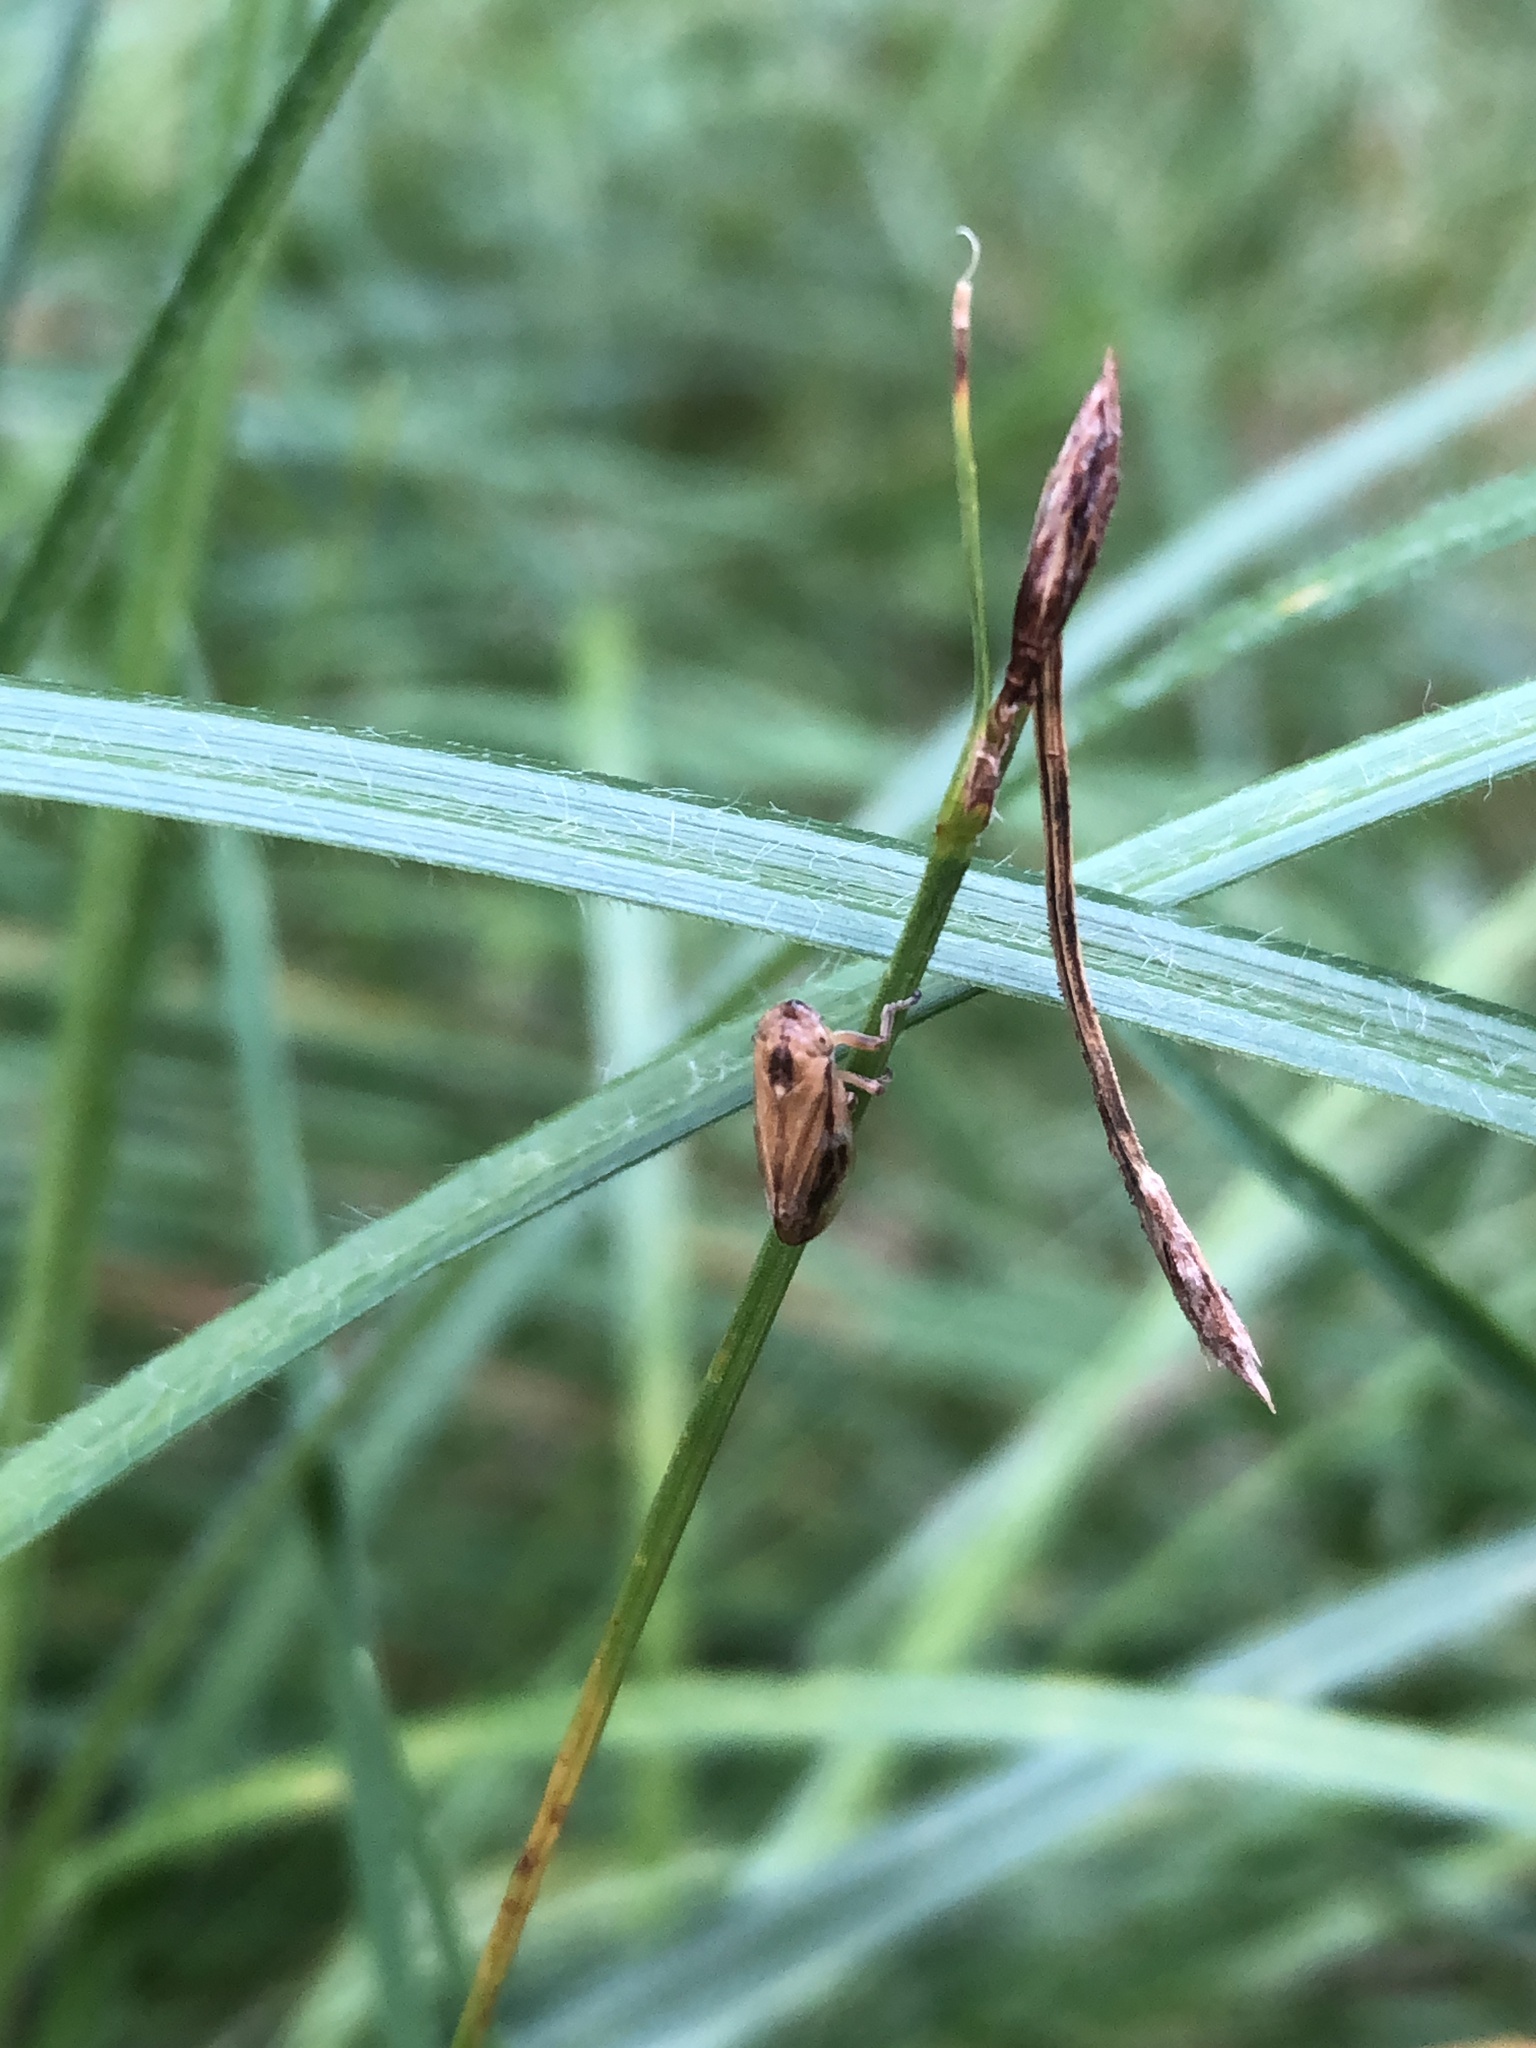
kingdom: Animalia
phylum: Arthropoda
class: Insecta
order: Hemiptera
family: Aphrophoridae
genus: Philaenus
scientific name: Philaenus spumarius
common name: Meadow spittlebug
